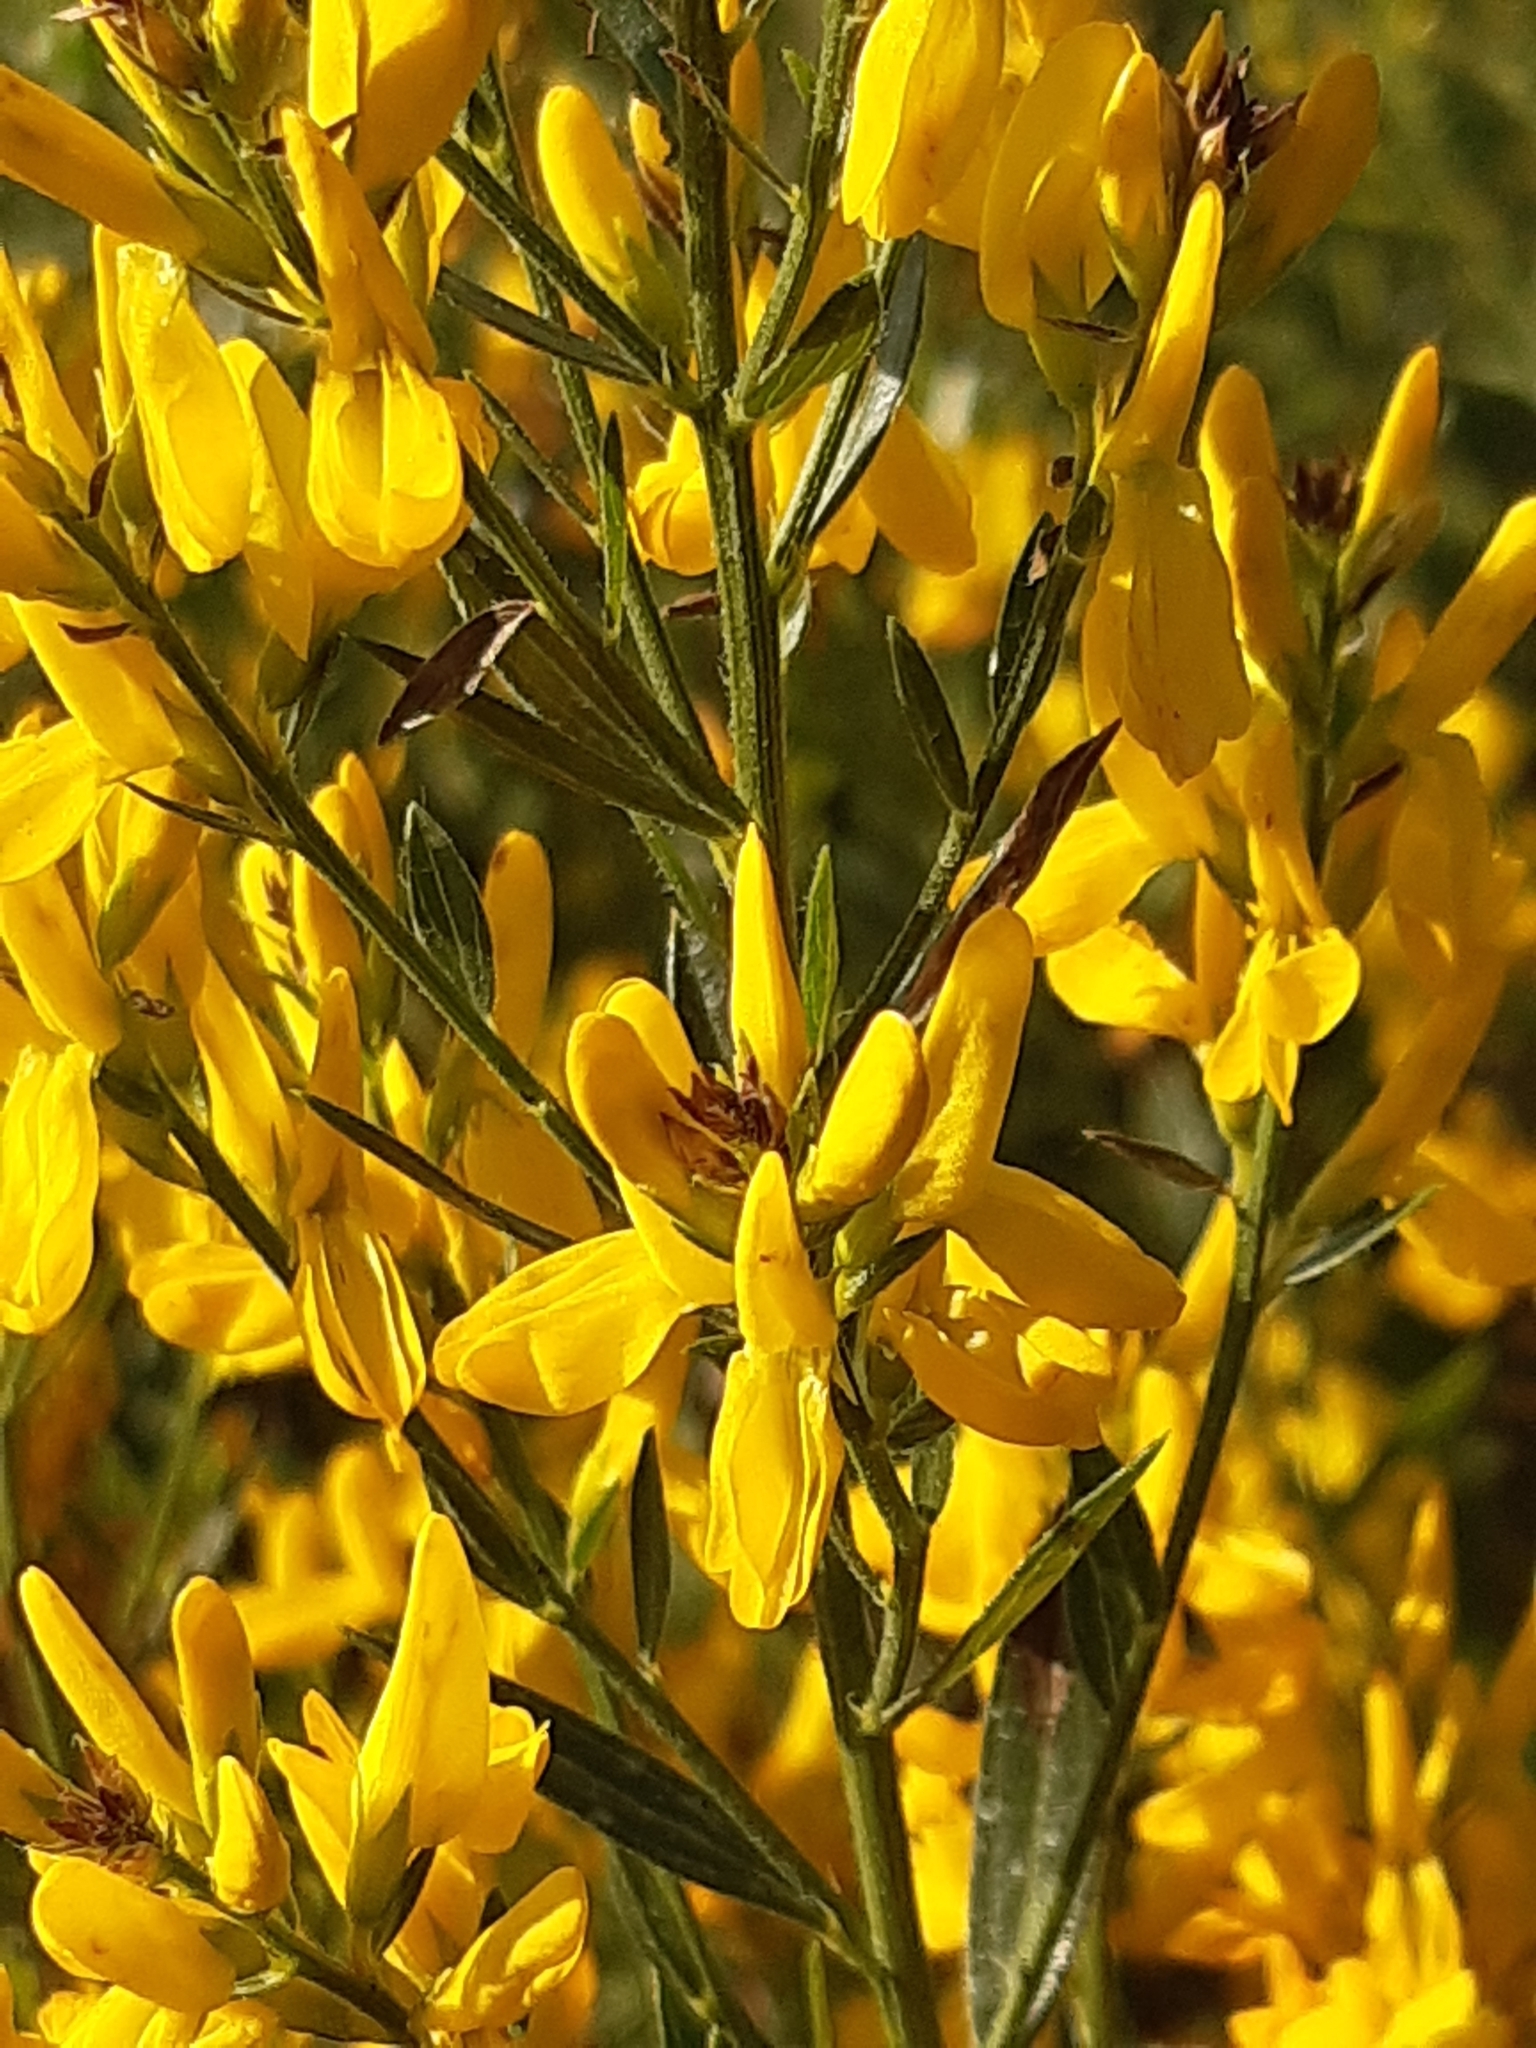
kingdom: Plantae
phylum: Tracheophyta
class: Magnoliopsida
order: Fabales
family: Fabaceae
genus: Genista
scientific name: Genista tinctoria
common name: Dyer's greenweed
